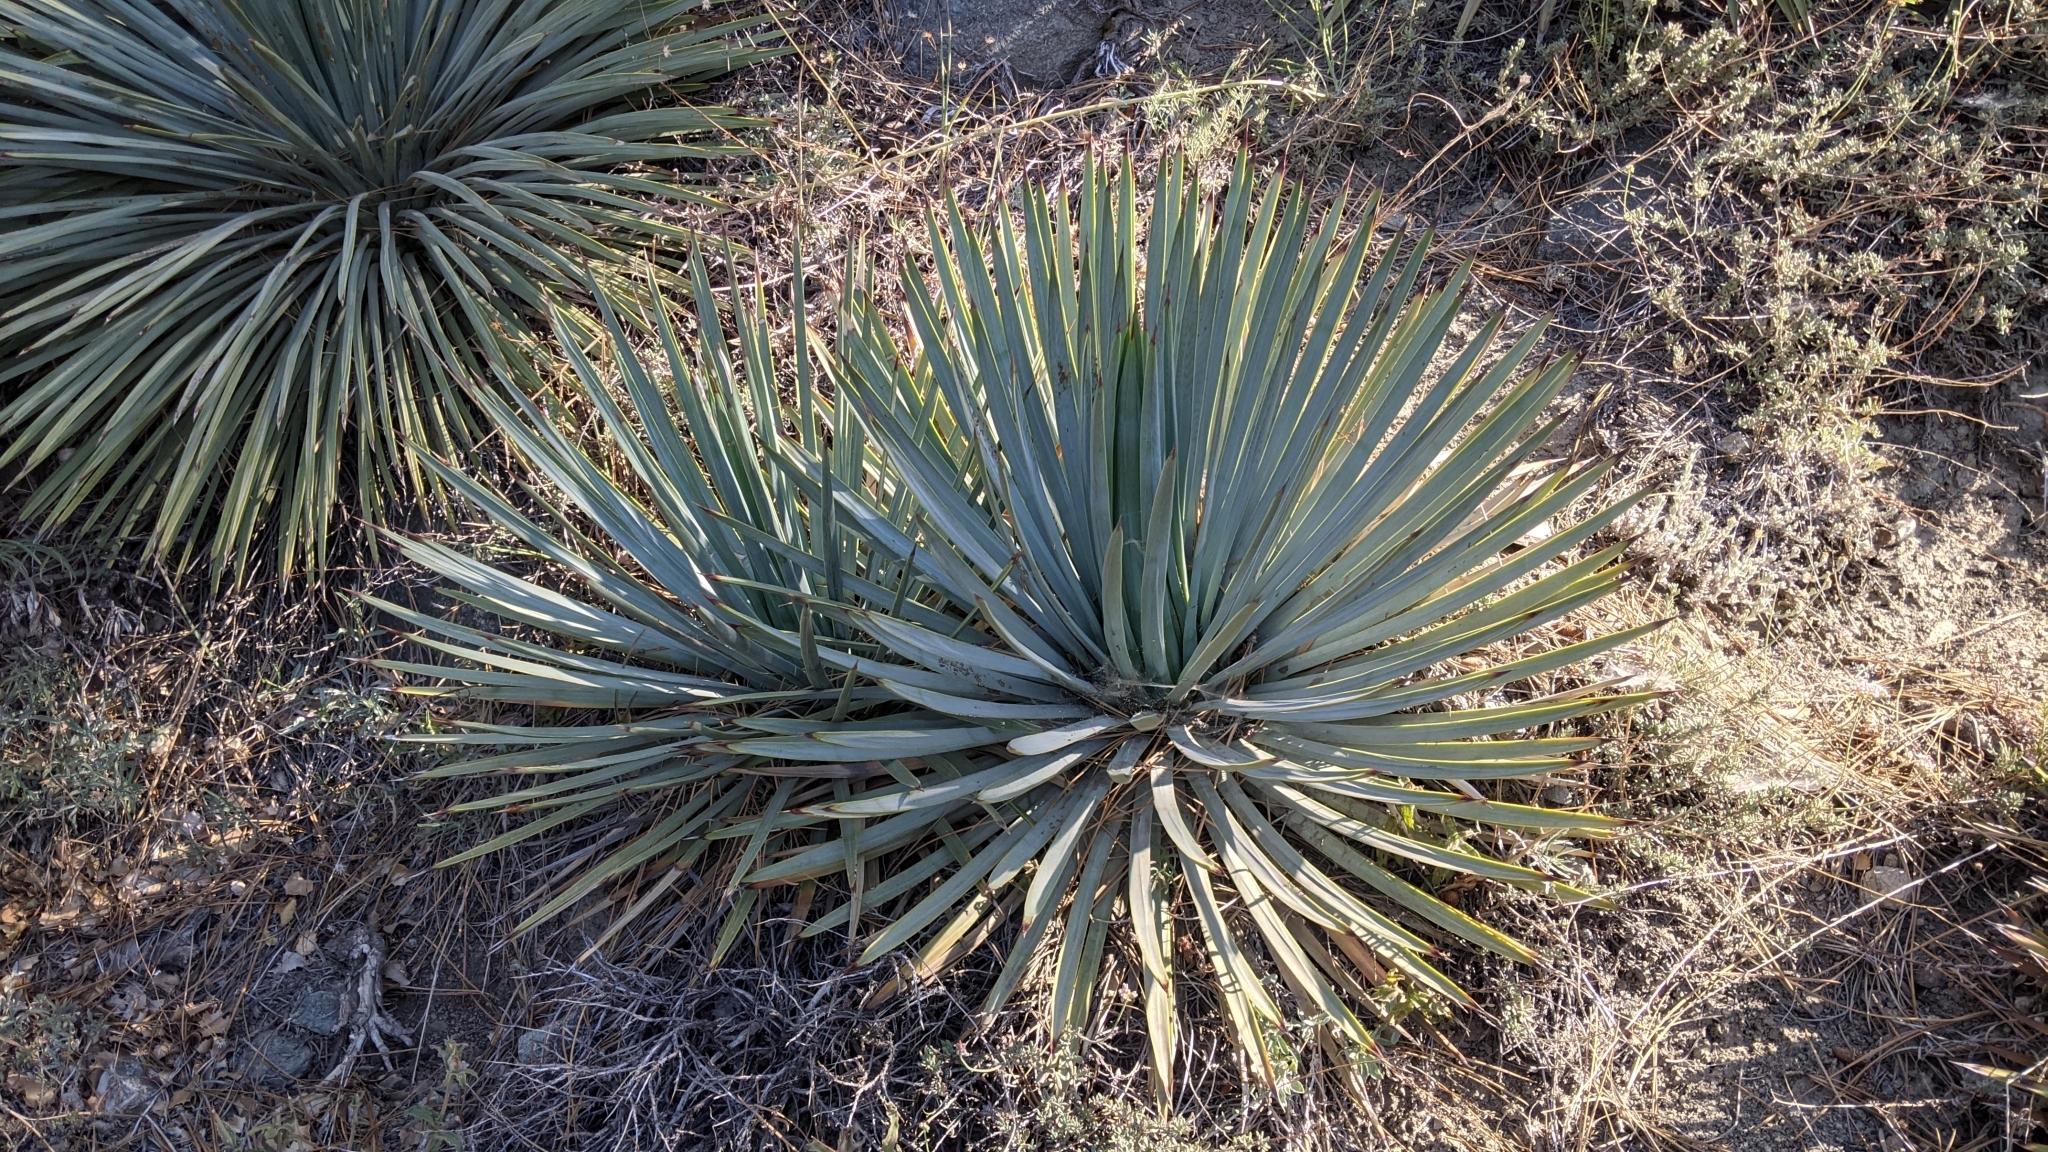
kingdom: Plantae
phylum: Tracheophyta
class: Liliopsida
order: Asparagales
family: Asparagaceae
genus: Hesperoyucca
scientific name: Hesperoyucca whipplei
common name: Our lord's-candle
